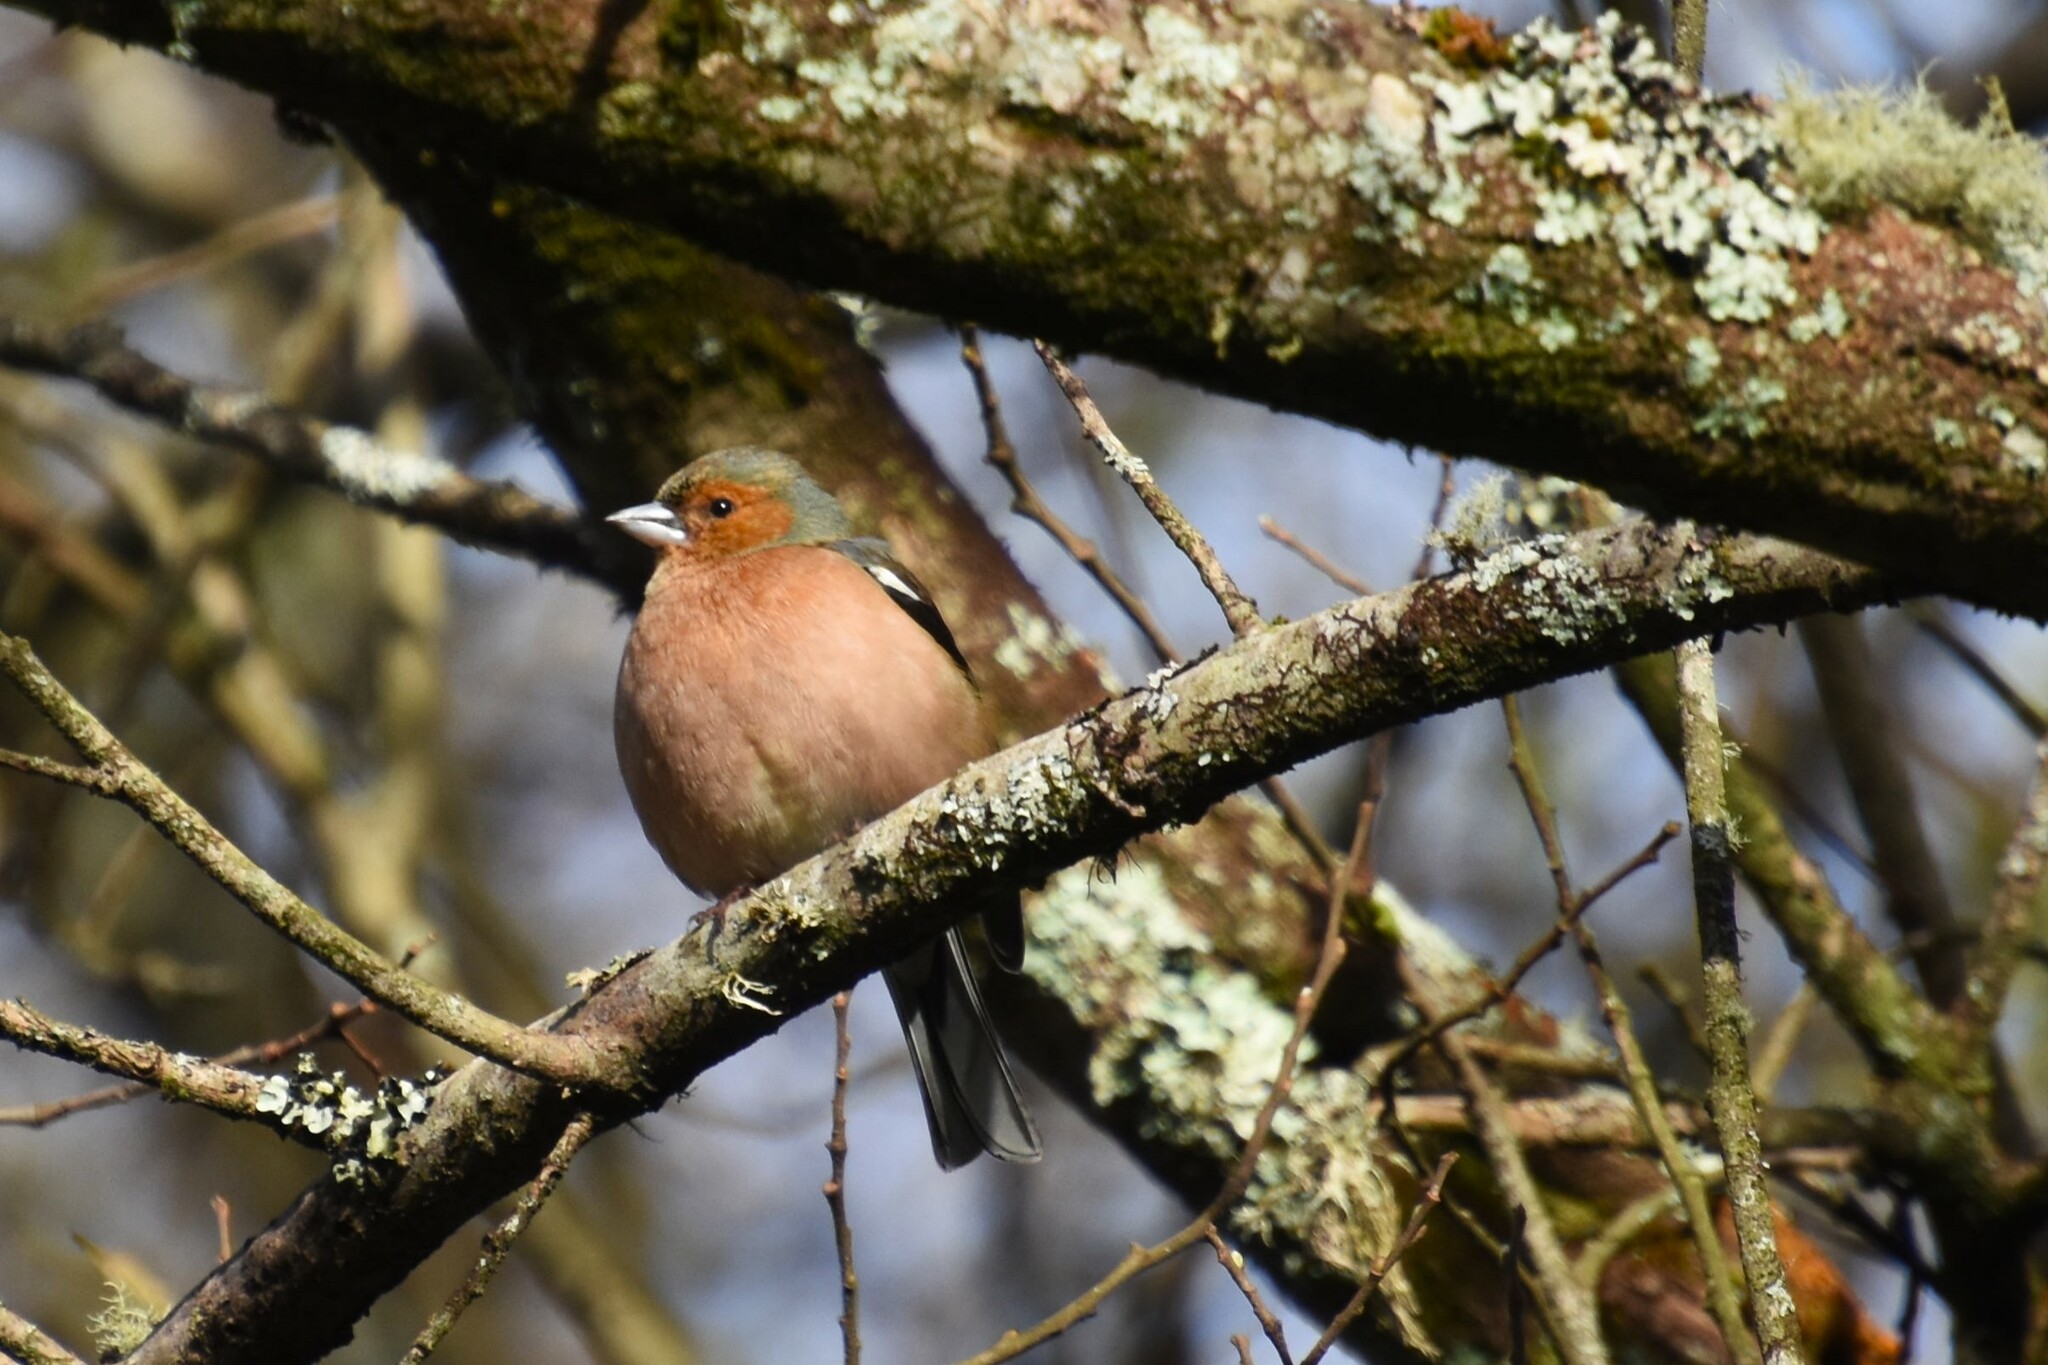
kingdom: Animalia
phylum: Chordata
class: Aves
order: Passeriformes
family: Fringillidae
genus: Fringilla
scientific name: Fringilla coelebs
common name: Common chaffinch
